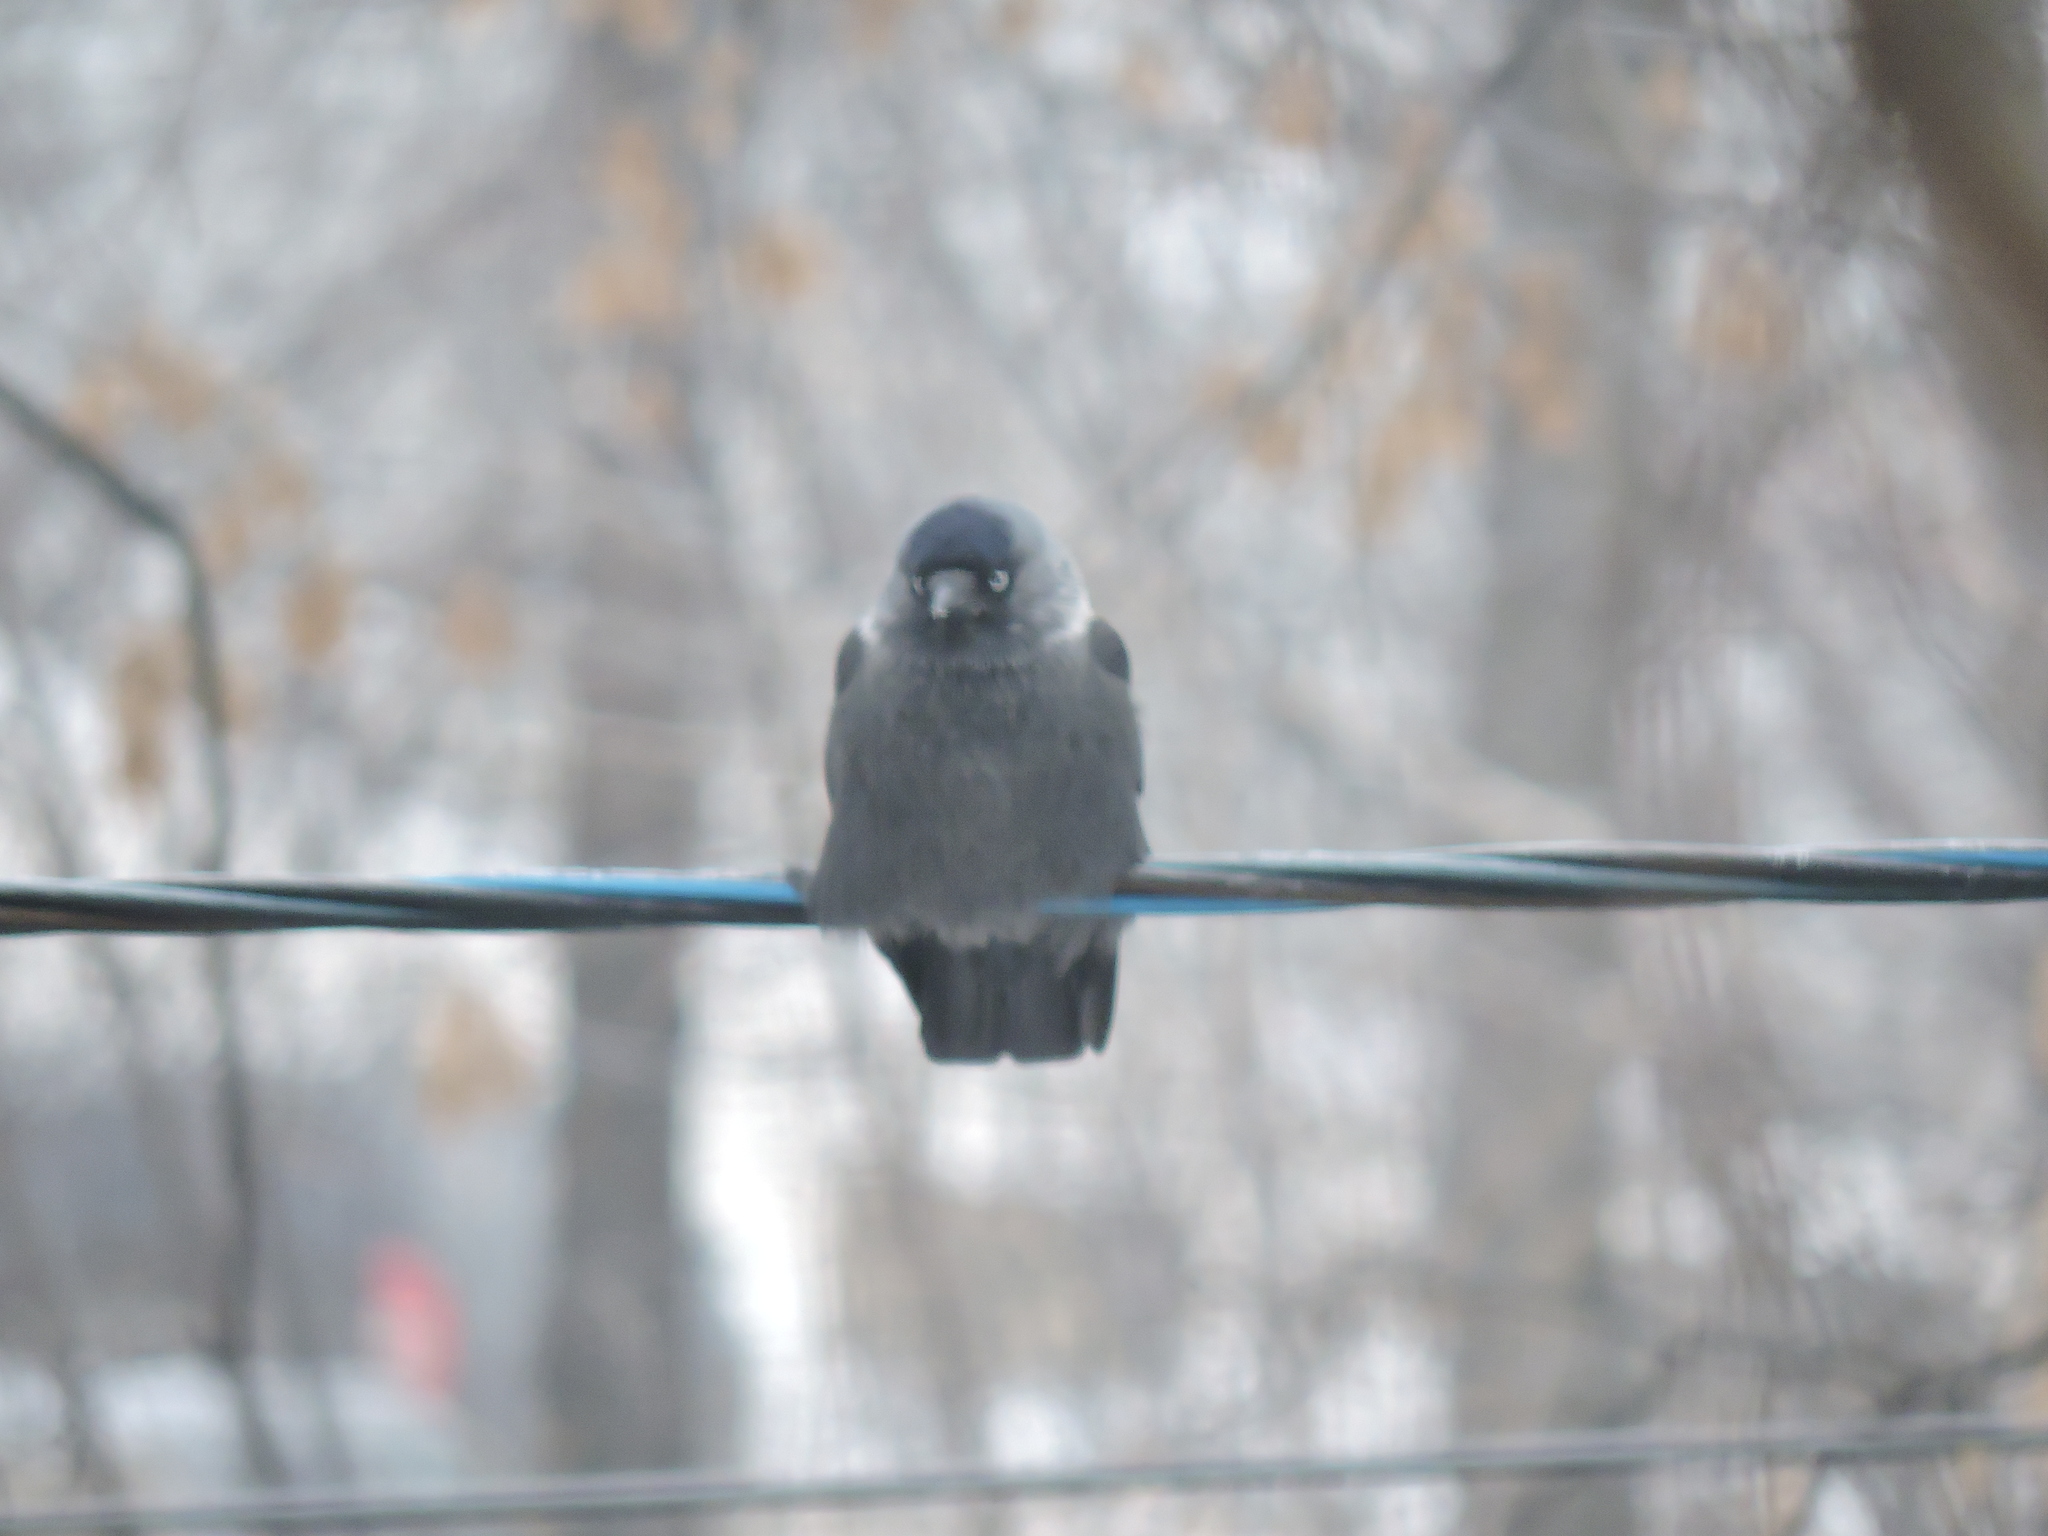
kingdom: Animalia
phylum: Chordata
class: Aves
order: Passeriformes
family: Corvidae
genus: Coloeus
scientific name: Coloeus monedula
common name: Western jackdaw
